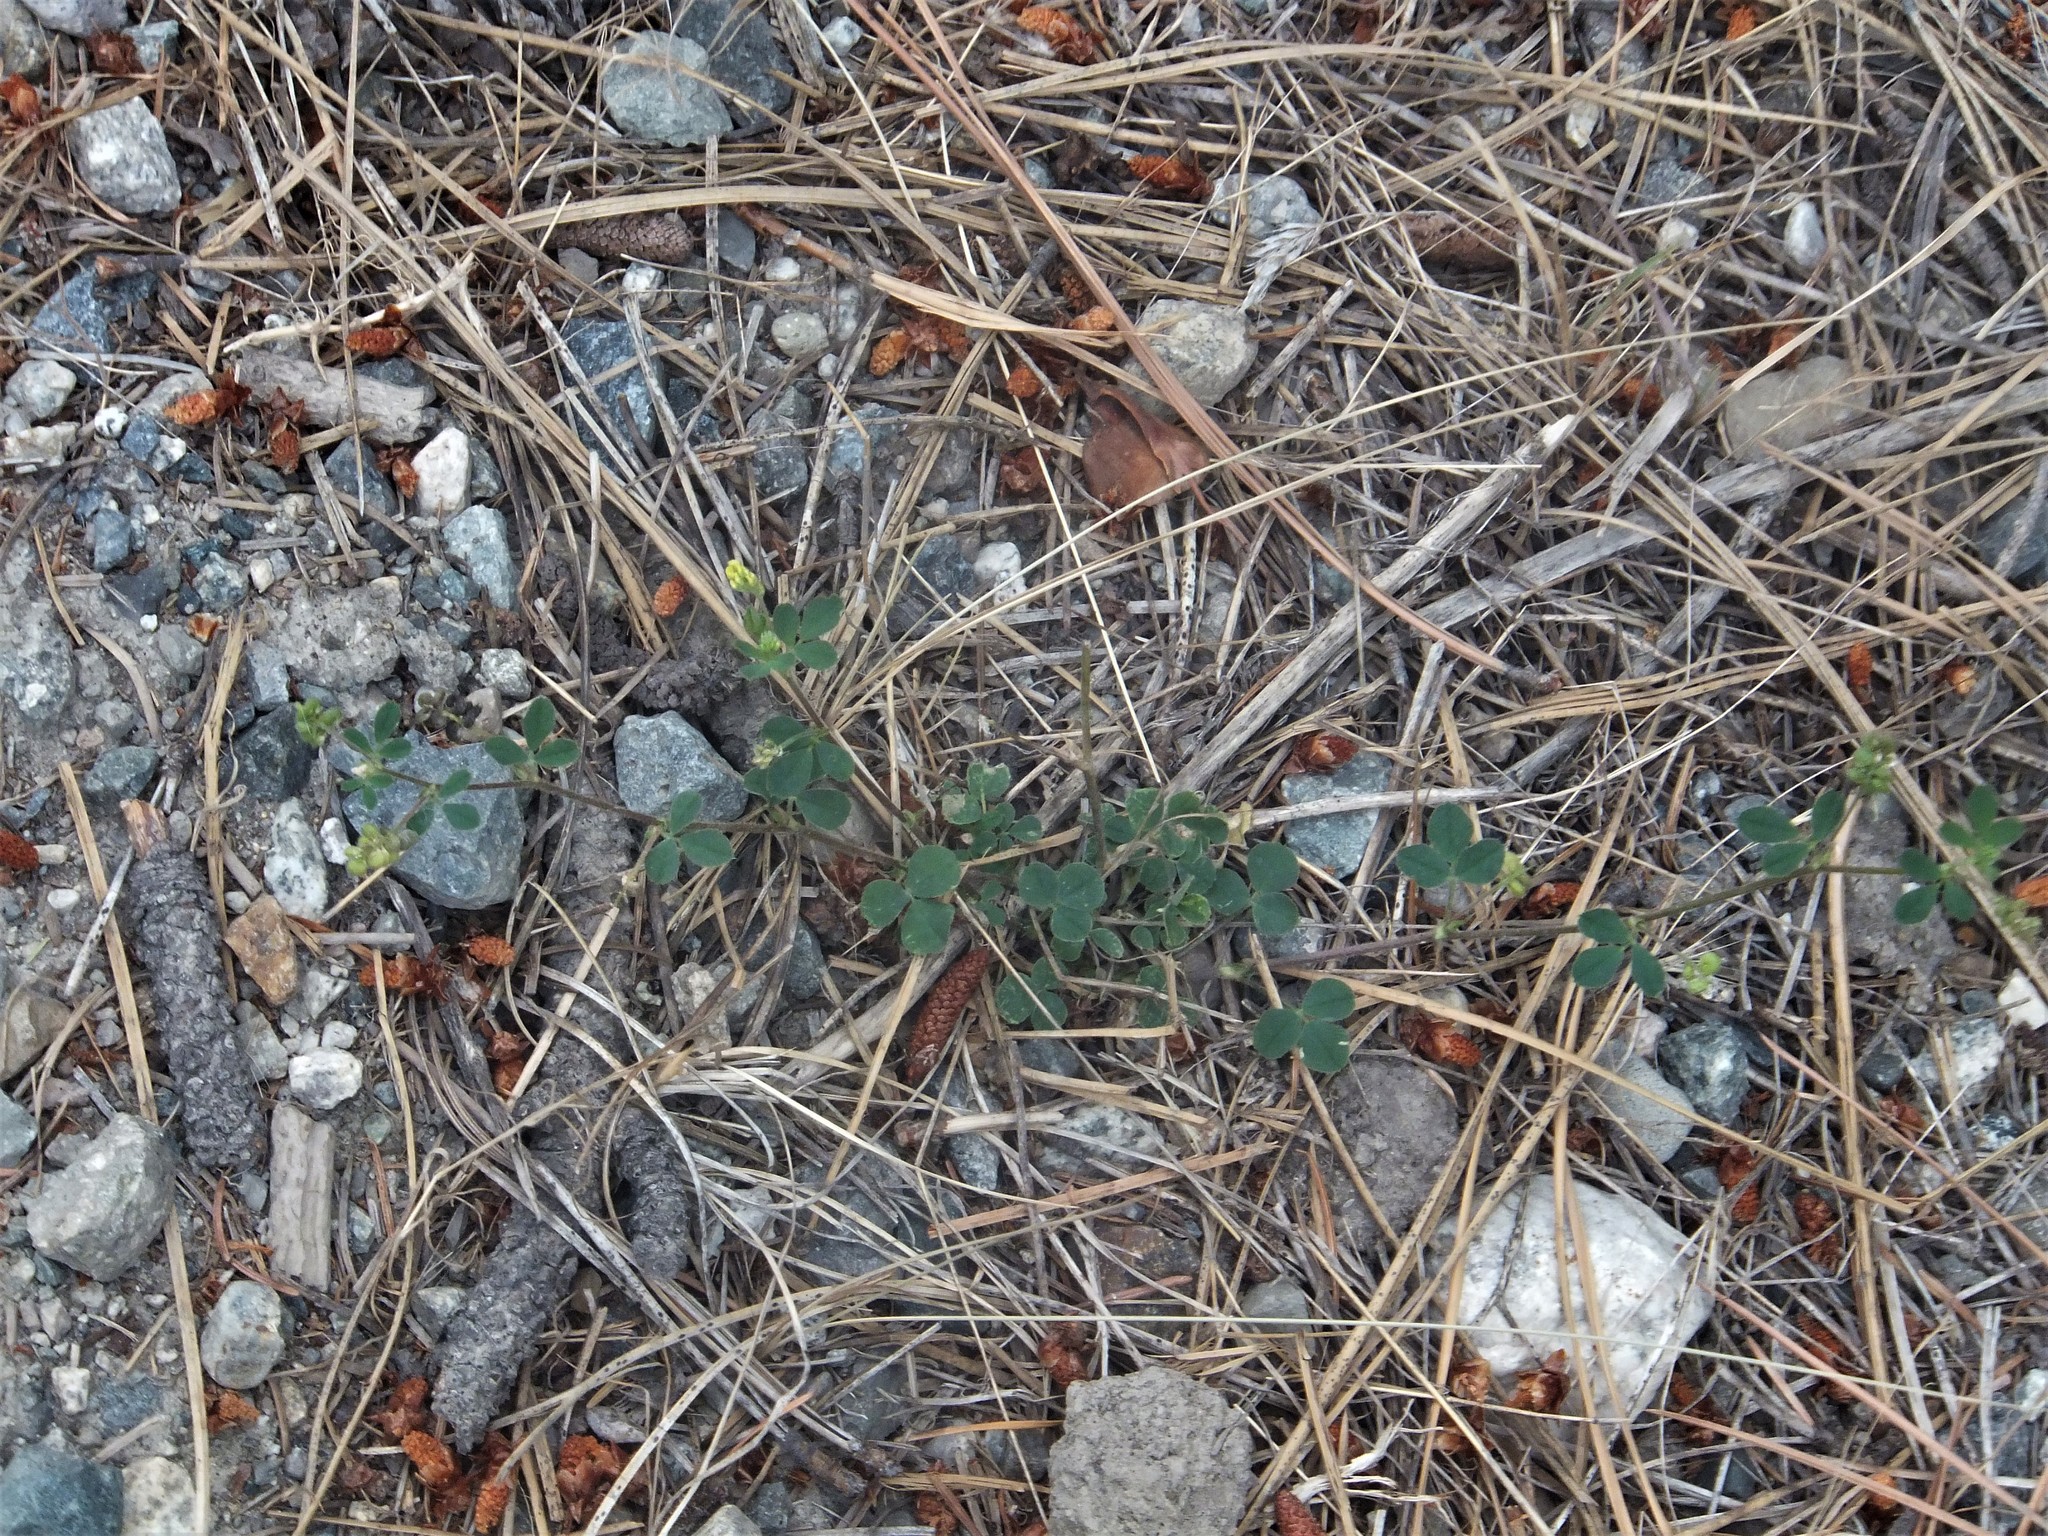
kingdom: Plantae
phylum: Tracheophyta
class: Magnoliopsida
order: Fabales
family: Fabaceae
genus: Medicago
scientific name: Medicago lupulina
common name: Black medick
